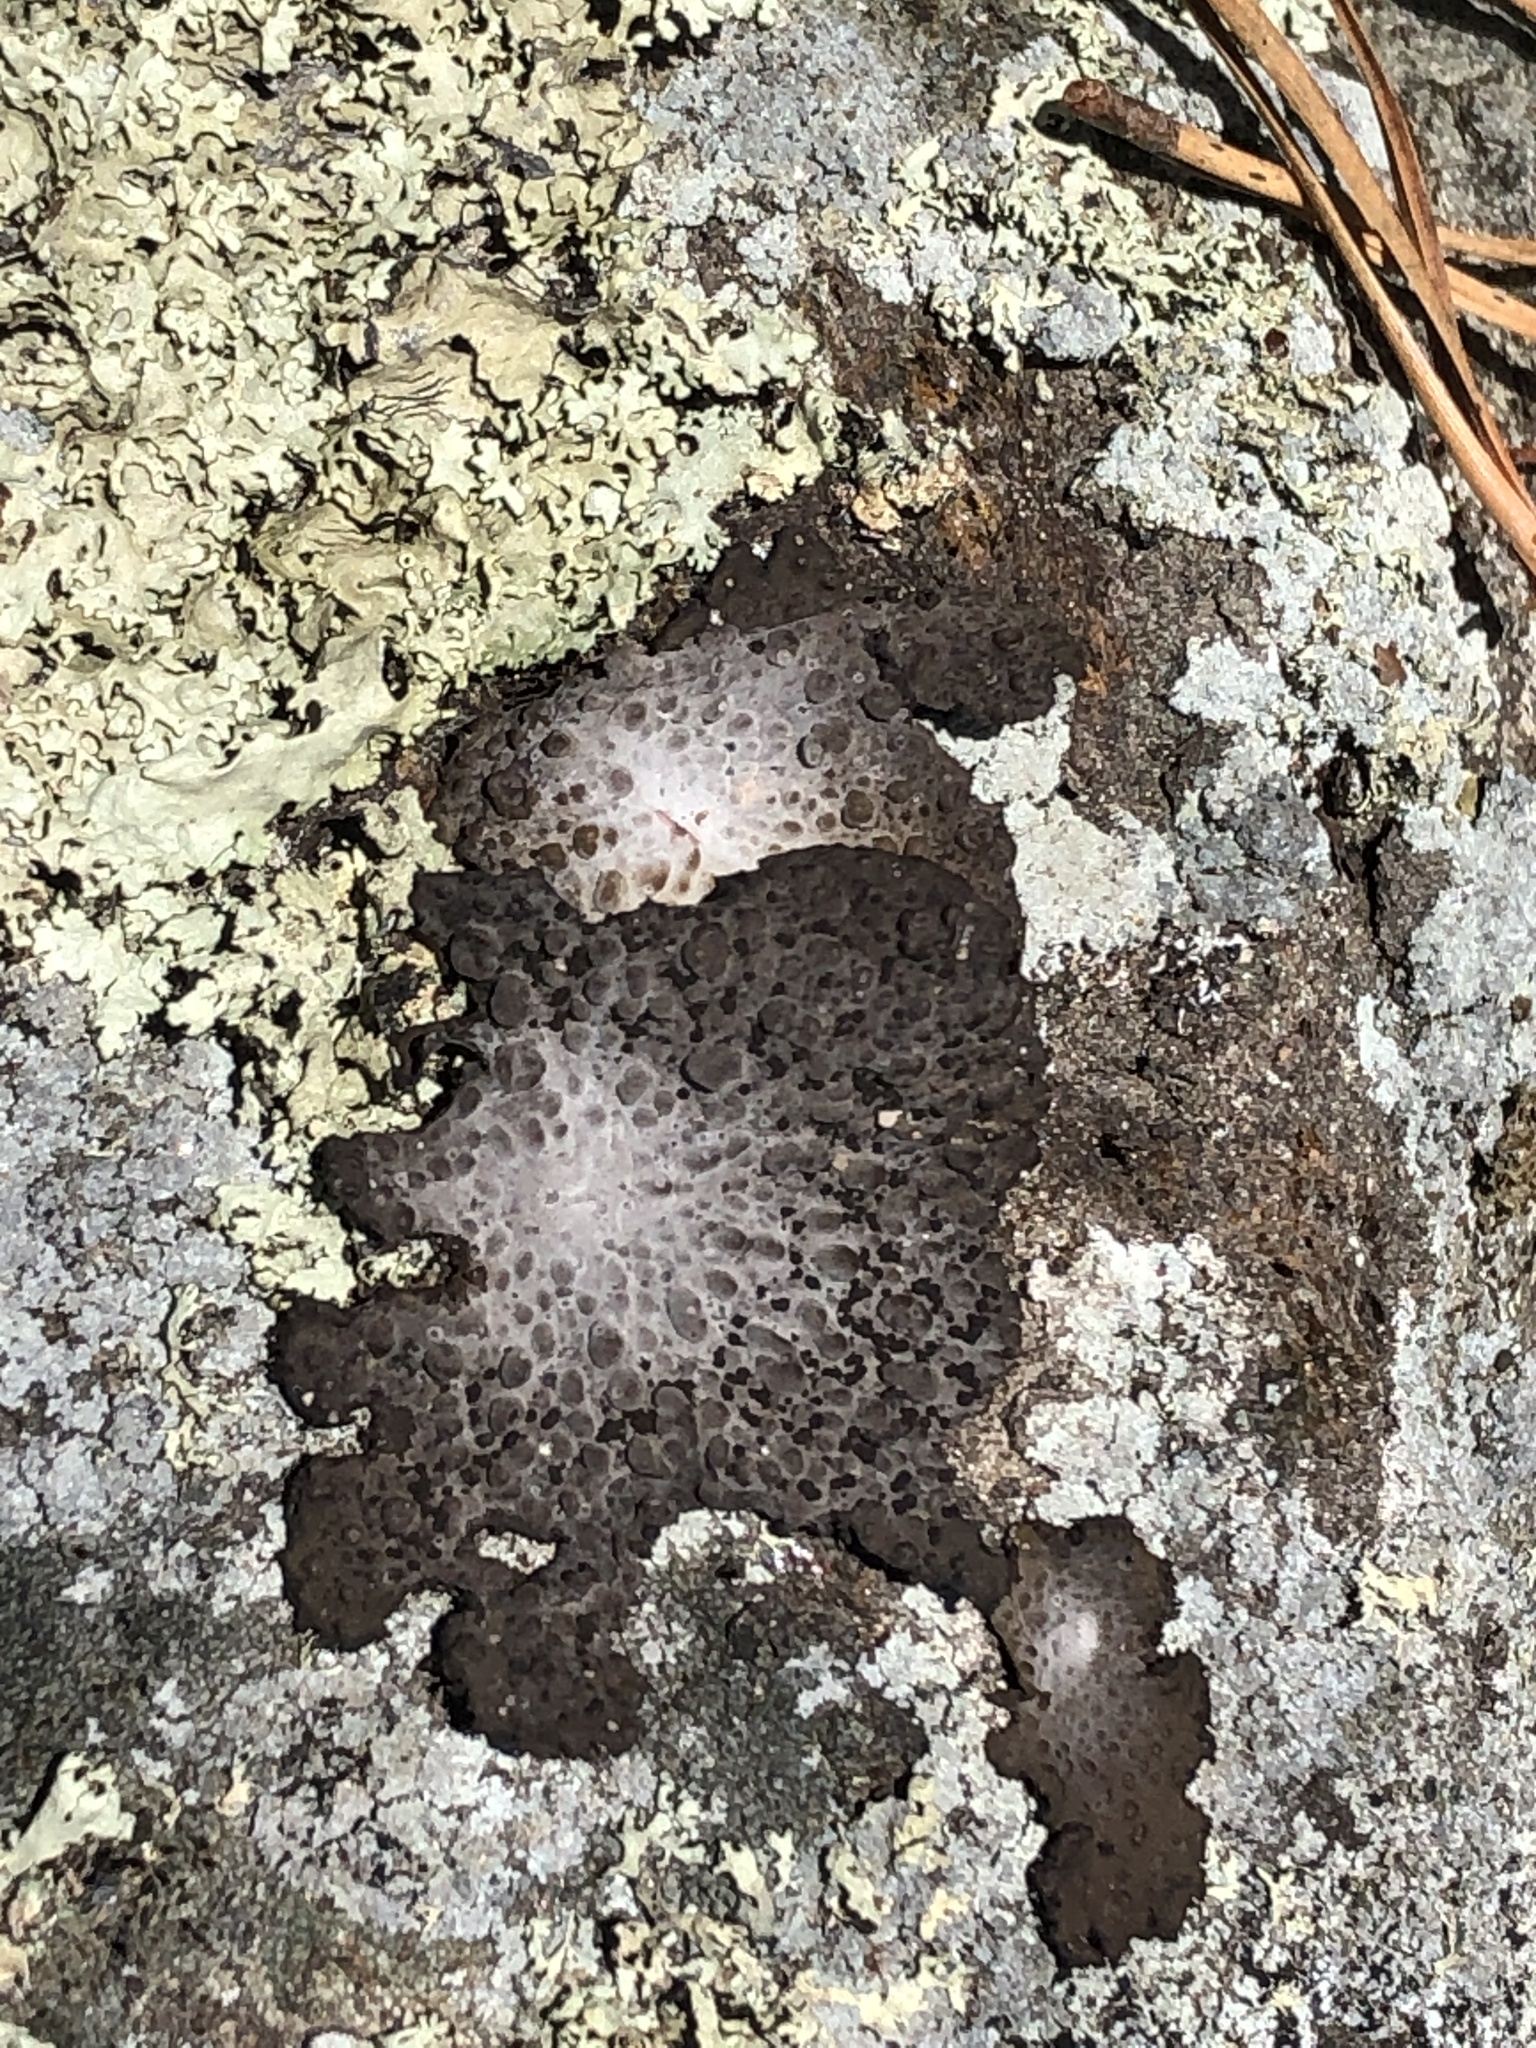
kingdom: Fungi
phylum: Ascomycota
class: Lecanoromycetes
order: Umbilicariales
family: Umbilicariaceae
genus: Lasallia
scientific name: Lasallia papulosa
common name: Common toadskin lichen
